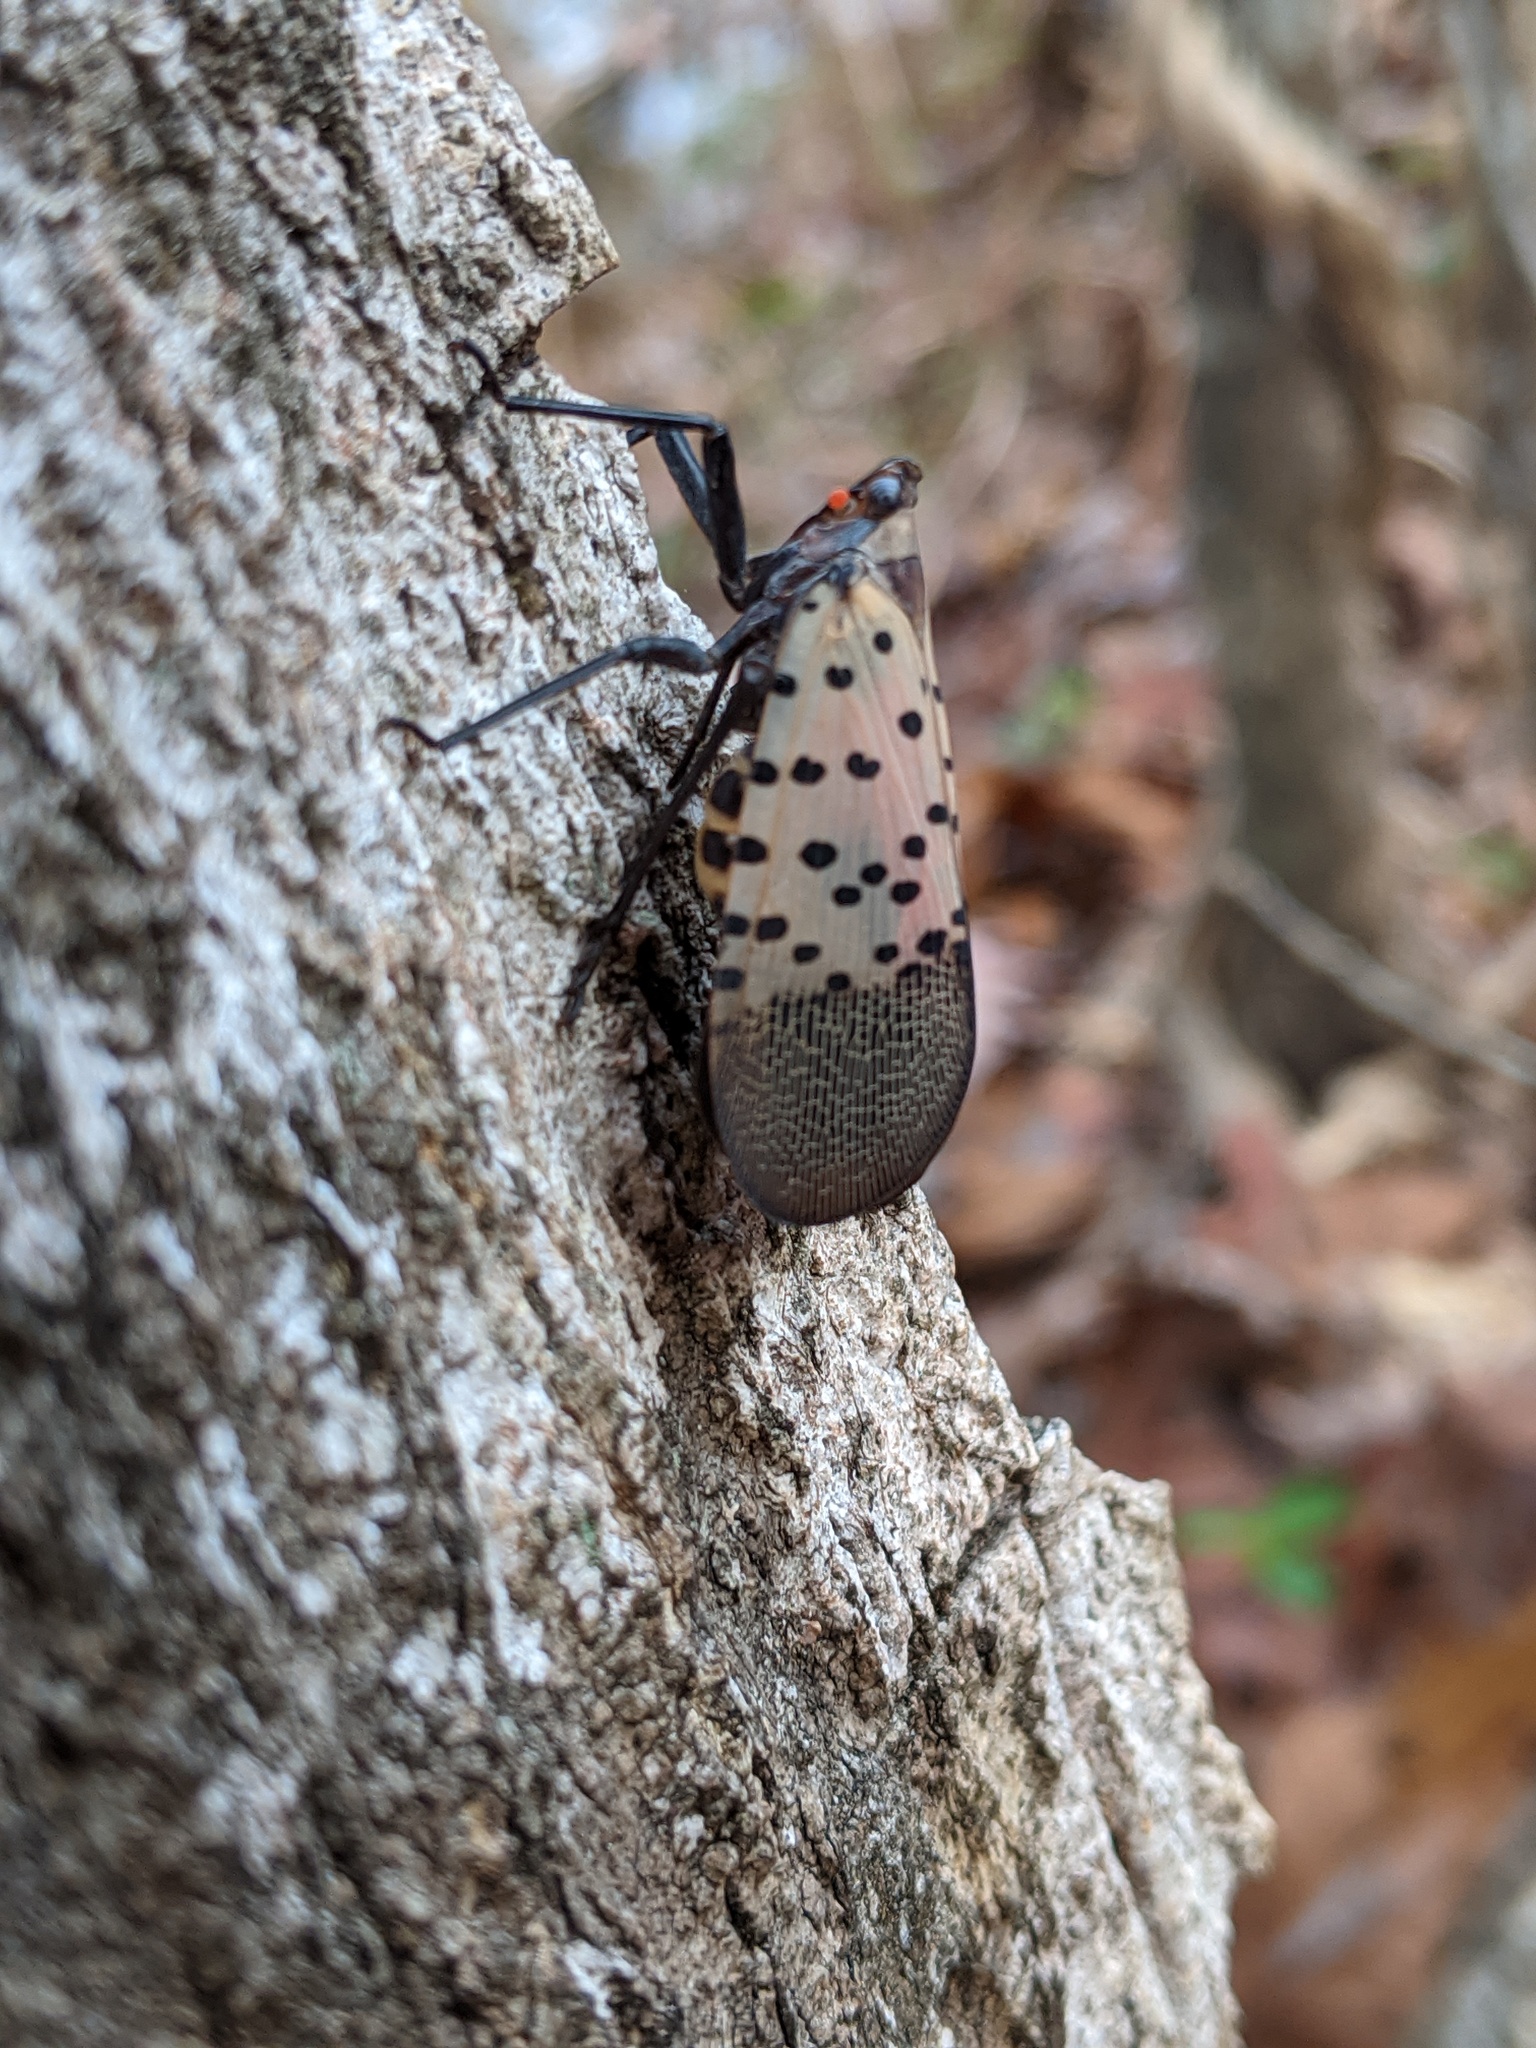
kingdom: Animalia
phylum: Arthropoda
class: Insecta
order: Hemiptera
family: Fulgoridae
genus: Lycorma
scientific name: Lycorma delicatula
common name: Spotted lanternfly
